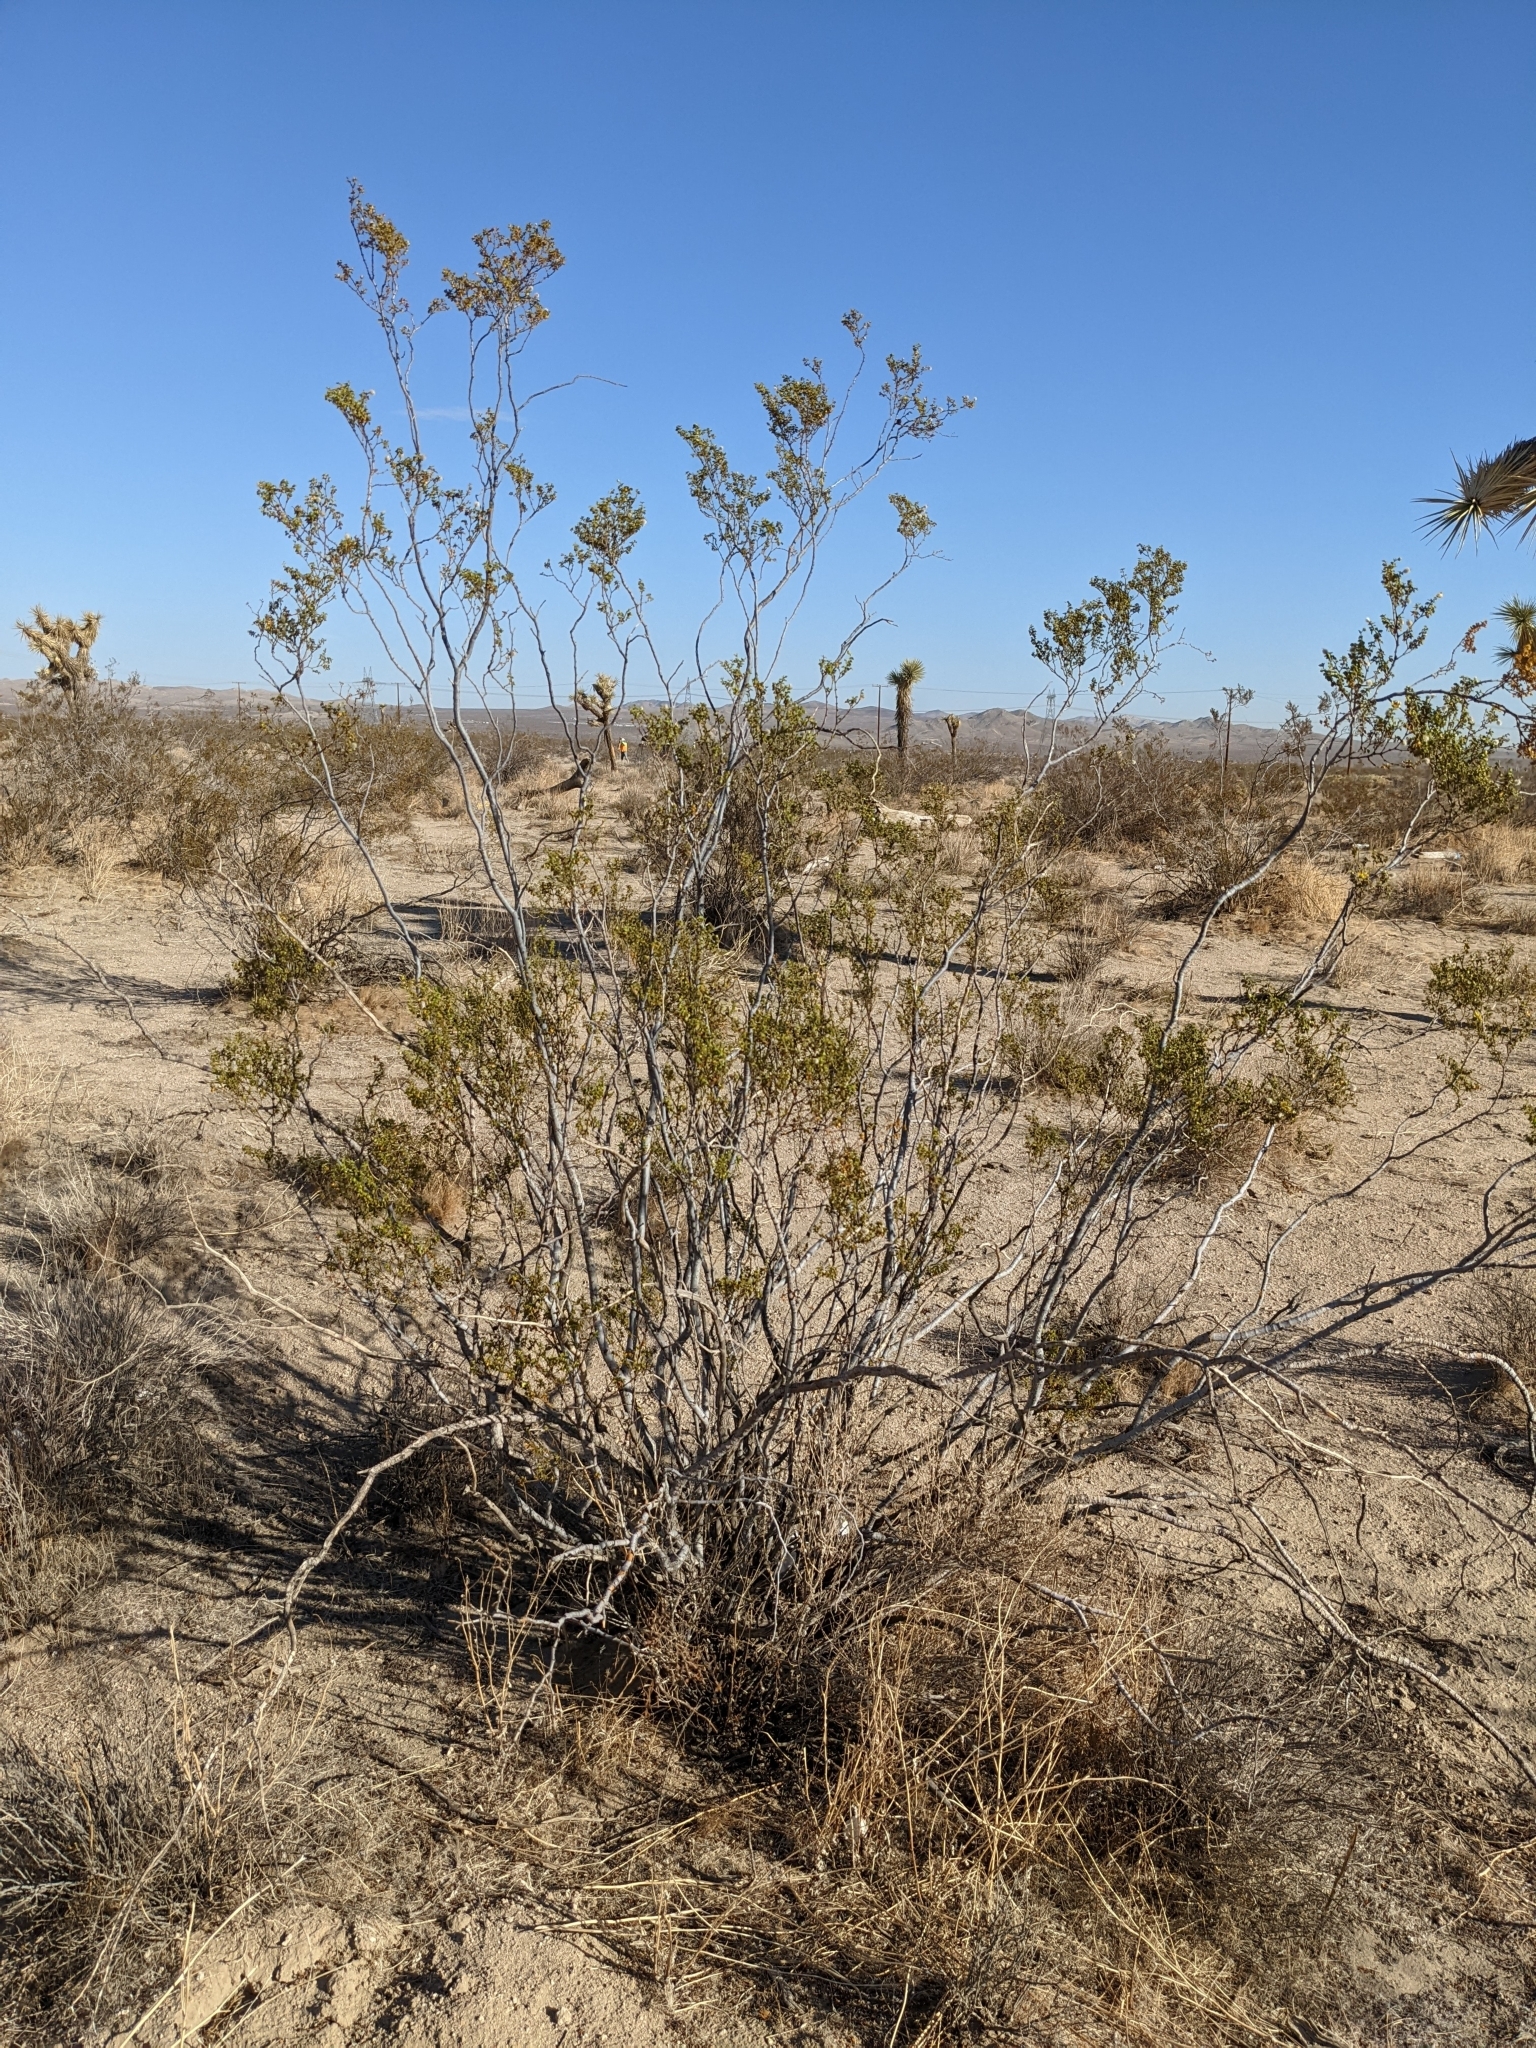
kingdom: Plantae
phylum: Tracheophyta
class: Magnoliopsida
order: Zygophyllales
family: Zygophyllaceae
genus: Larrea
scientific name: Larrea tridentata
